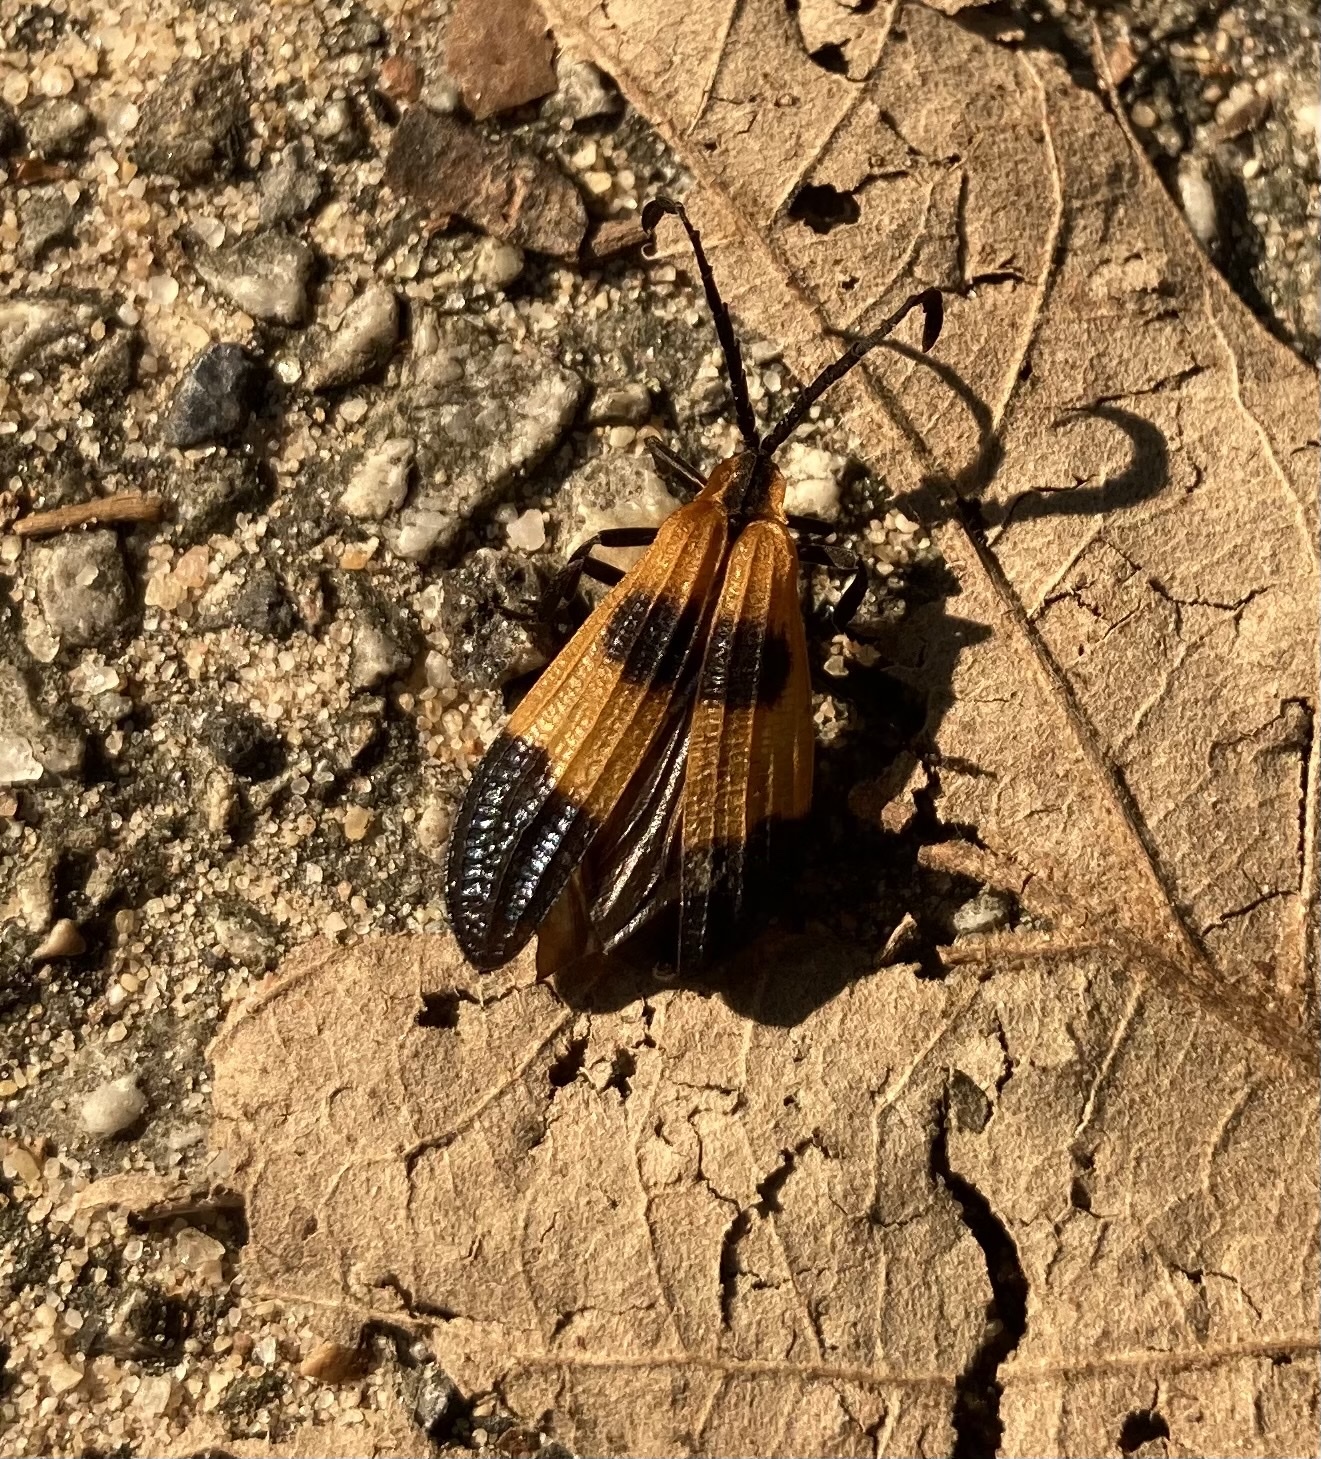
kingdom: Animalia
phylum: Arthropoda
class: Insecta
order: Coleoptera
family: Lycidae
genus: Calopteron
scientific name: Calopteron terminale
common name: End band net-winged beetle
